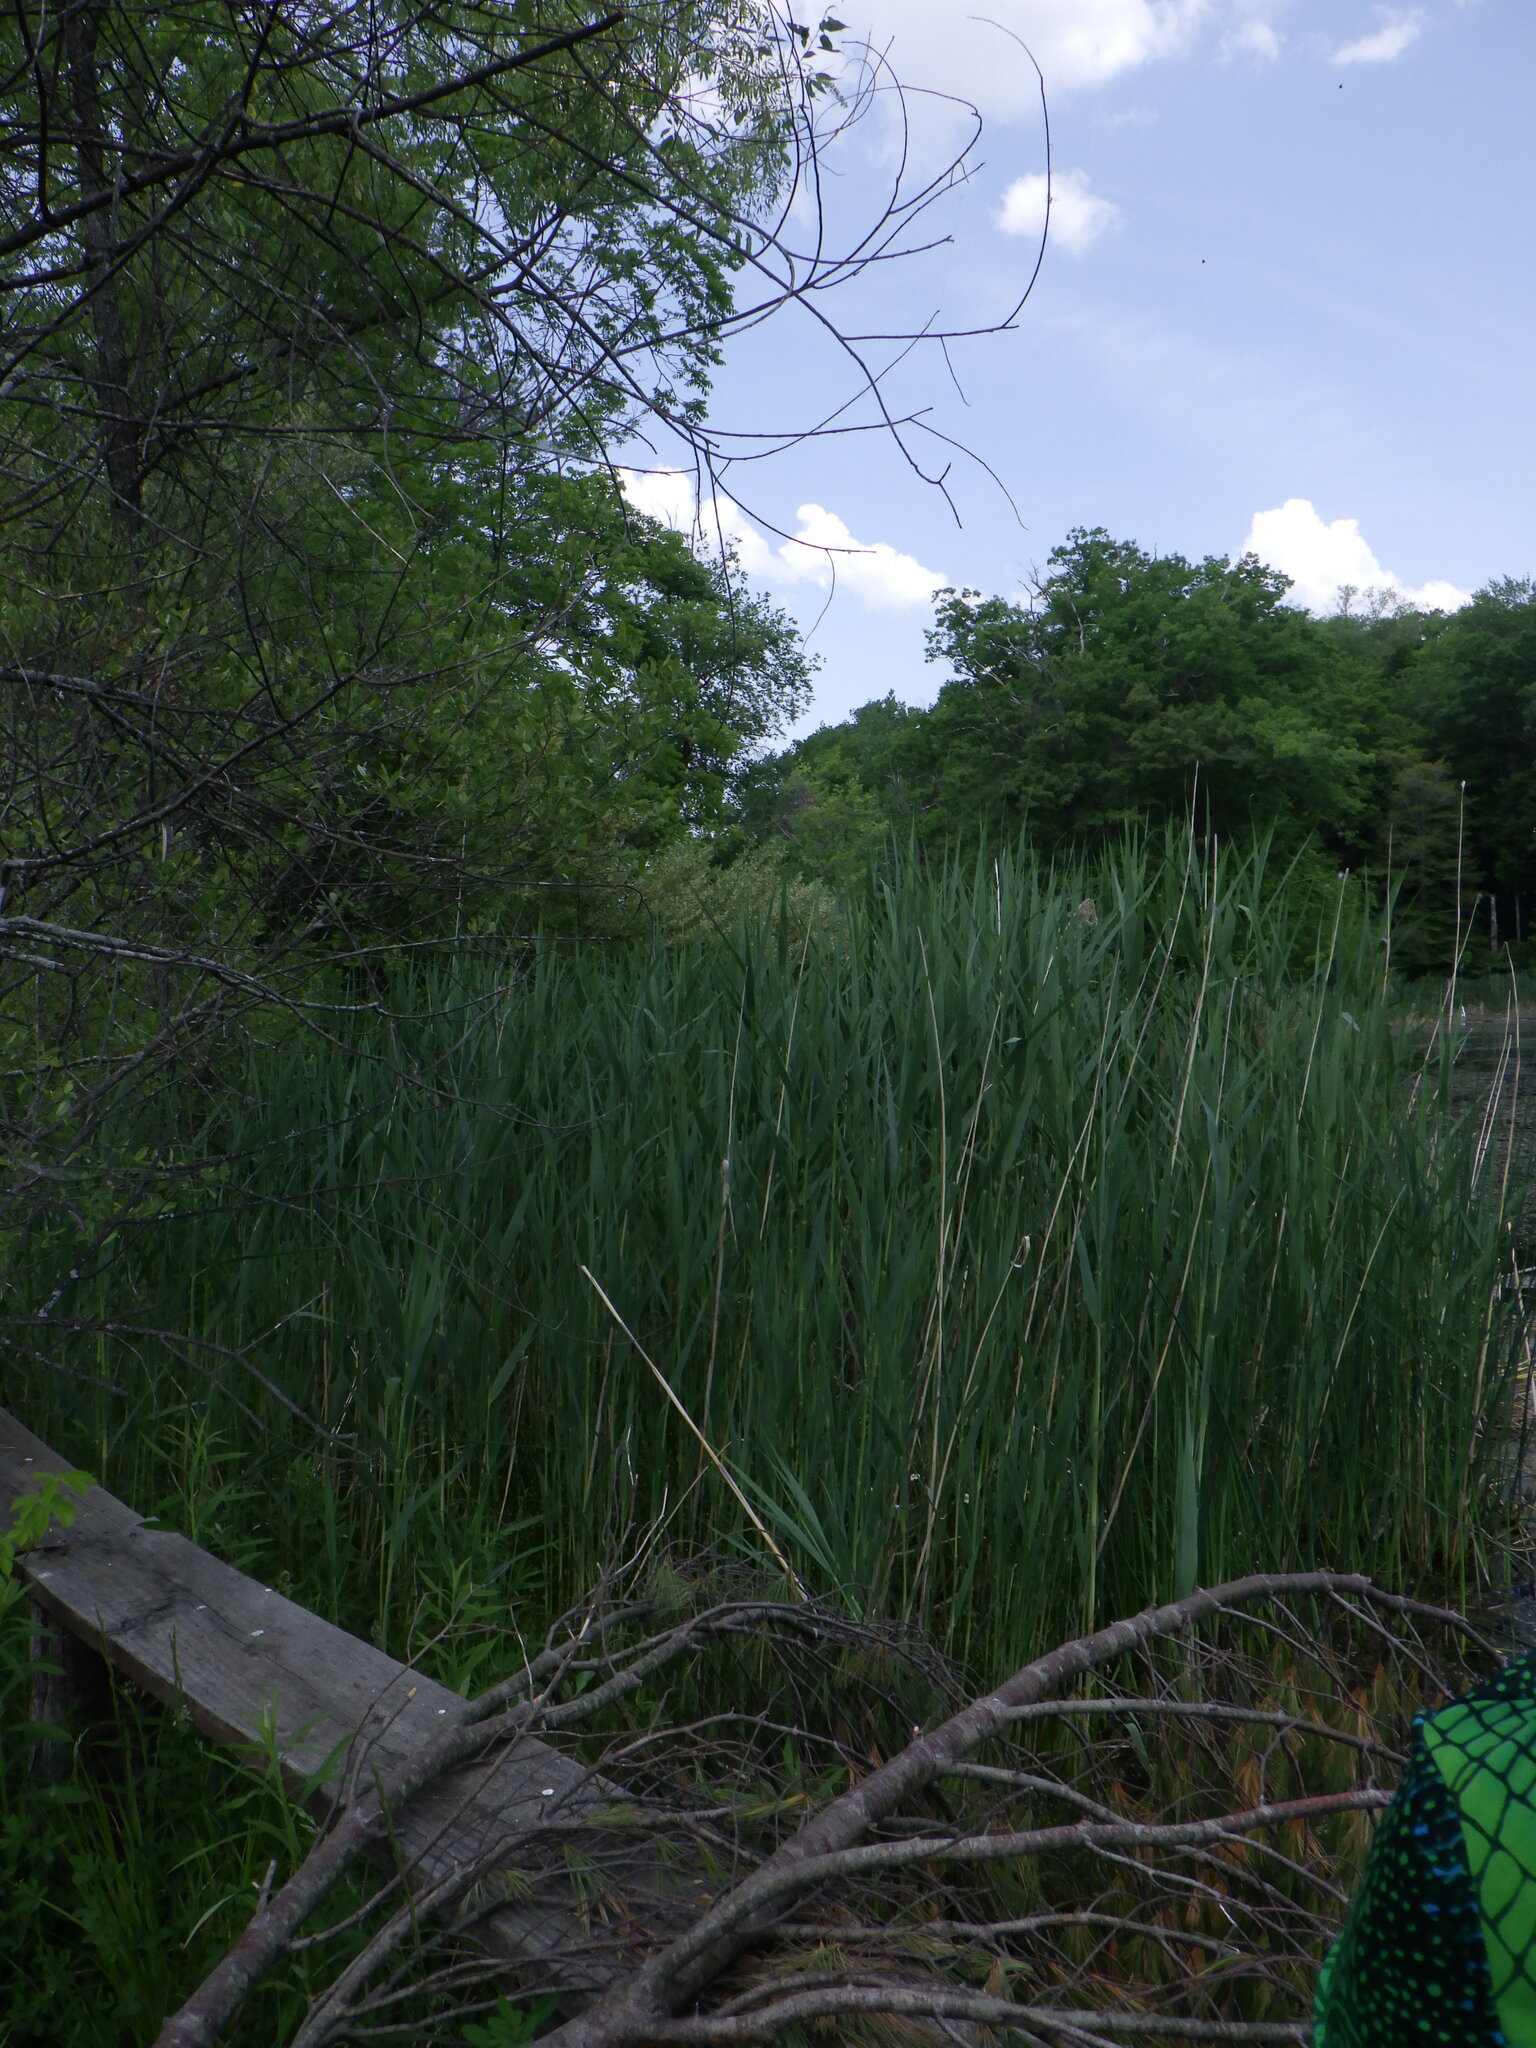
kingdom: Plantae
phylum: Tracheophyta
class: Liliopsida
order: Poales
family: Poaceae
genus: Phragmites
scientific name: Phragmites australis
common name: Common reed
